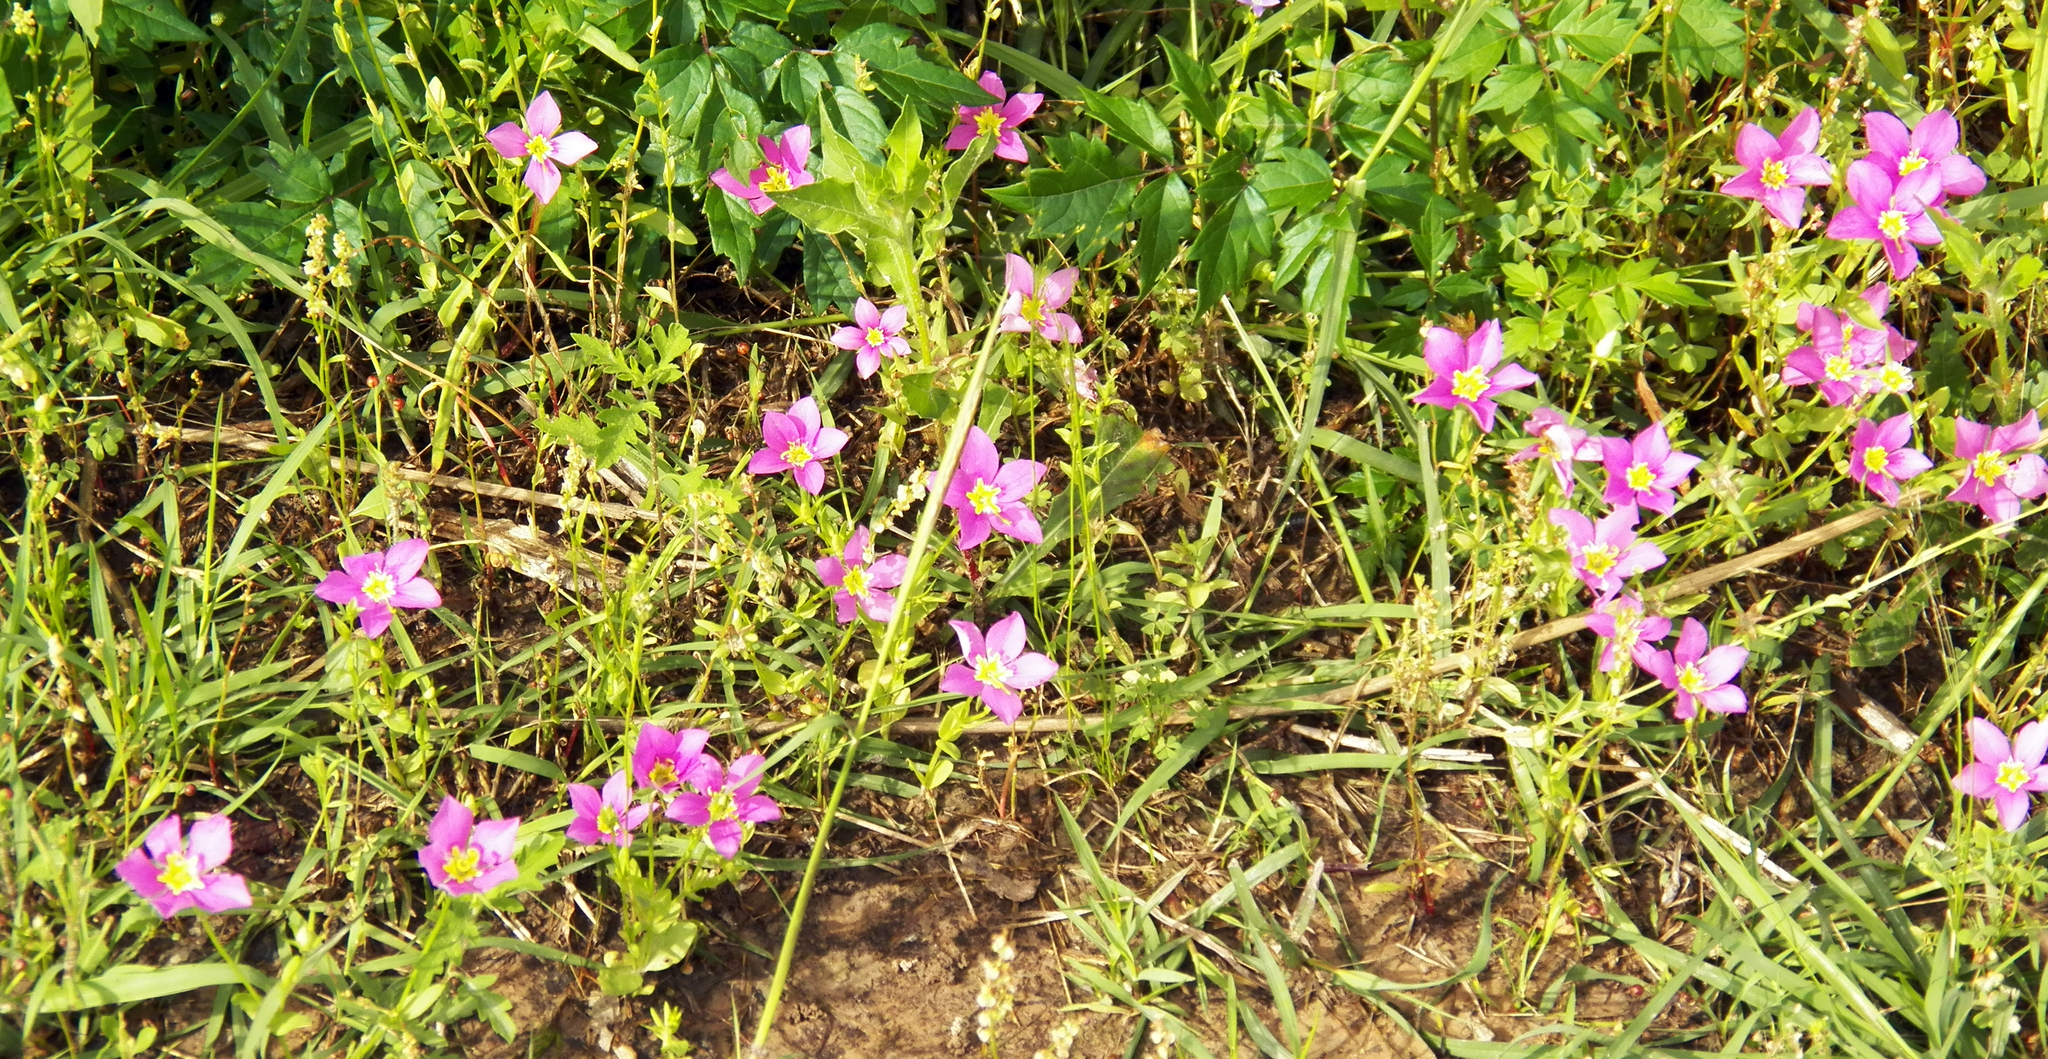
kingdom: Plantae
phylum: Tracheophyta
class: Magnoliopsida
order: Gentianales
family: Gentianaceae
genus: Sabatia
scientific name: Sabatia campestris
